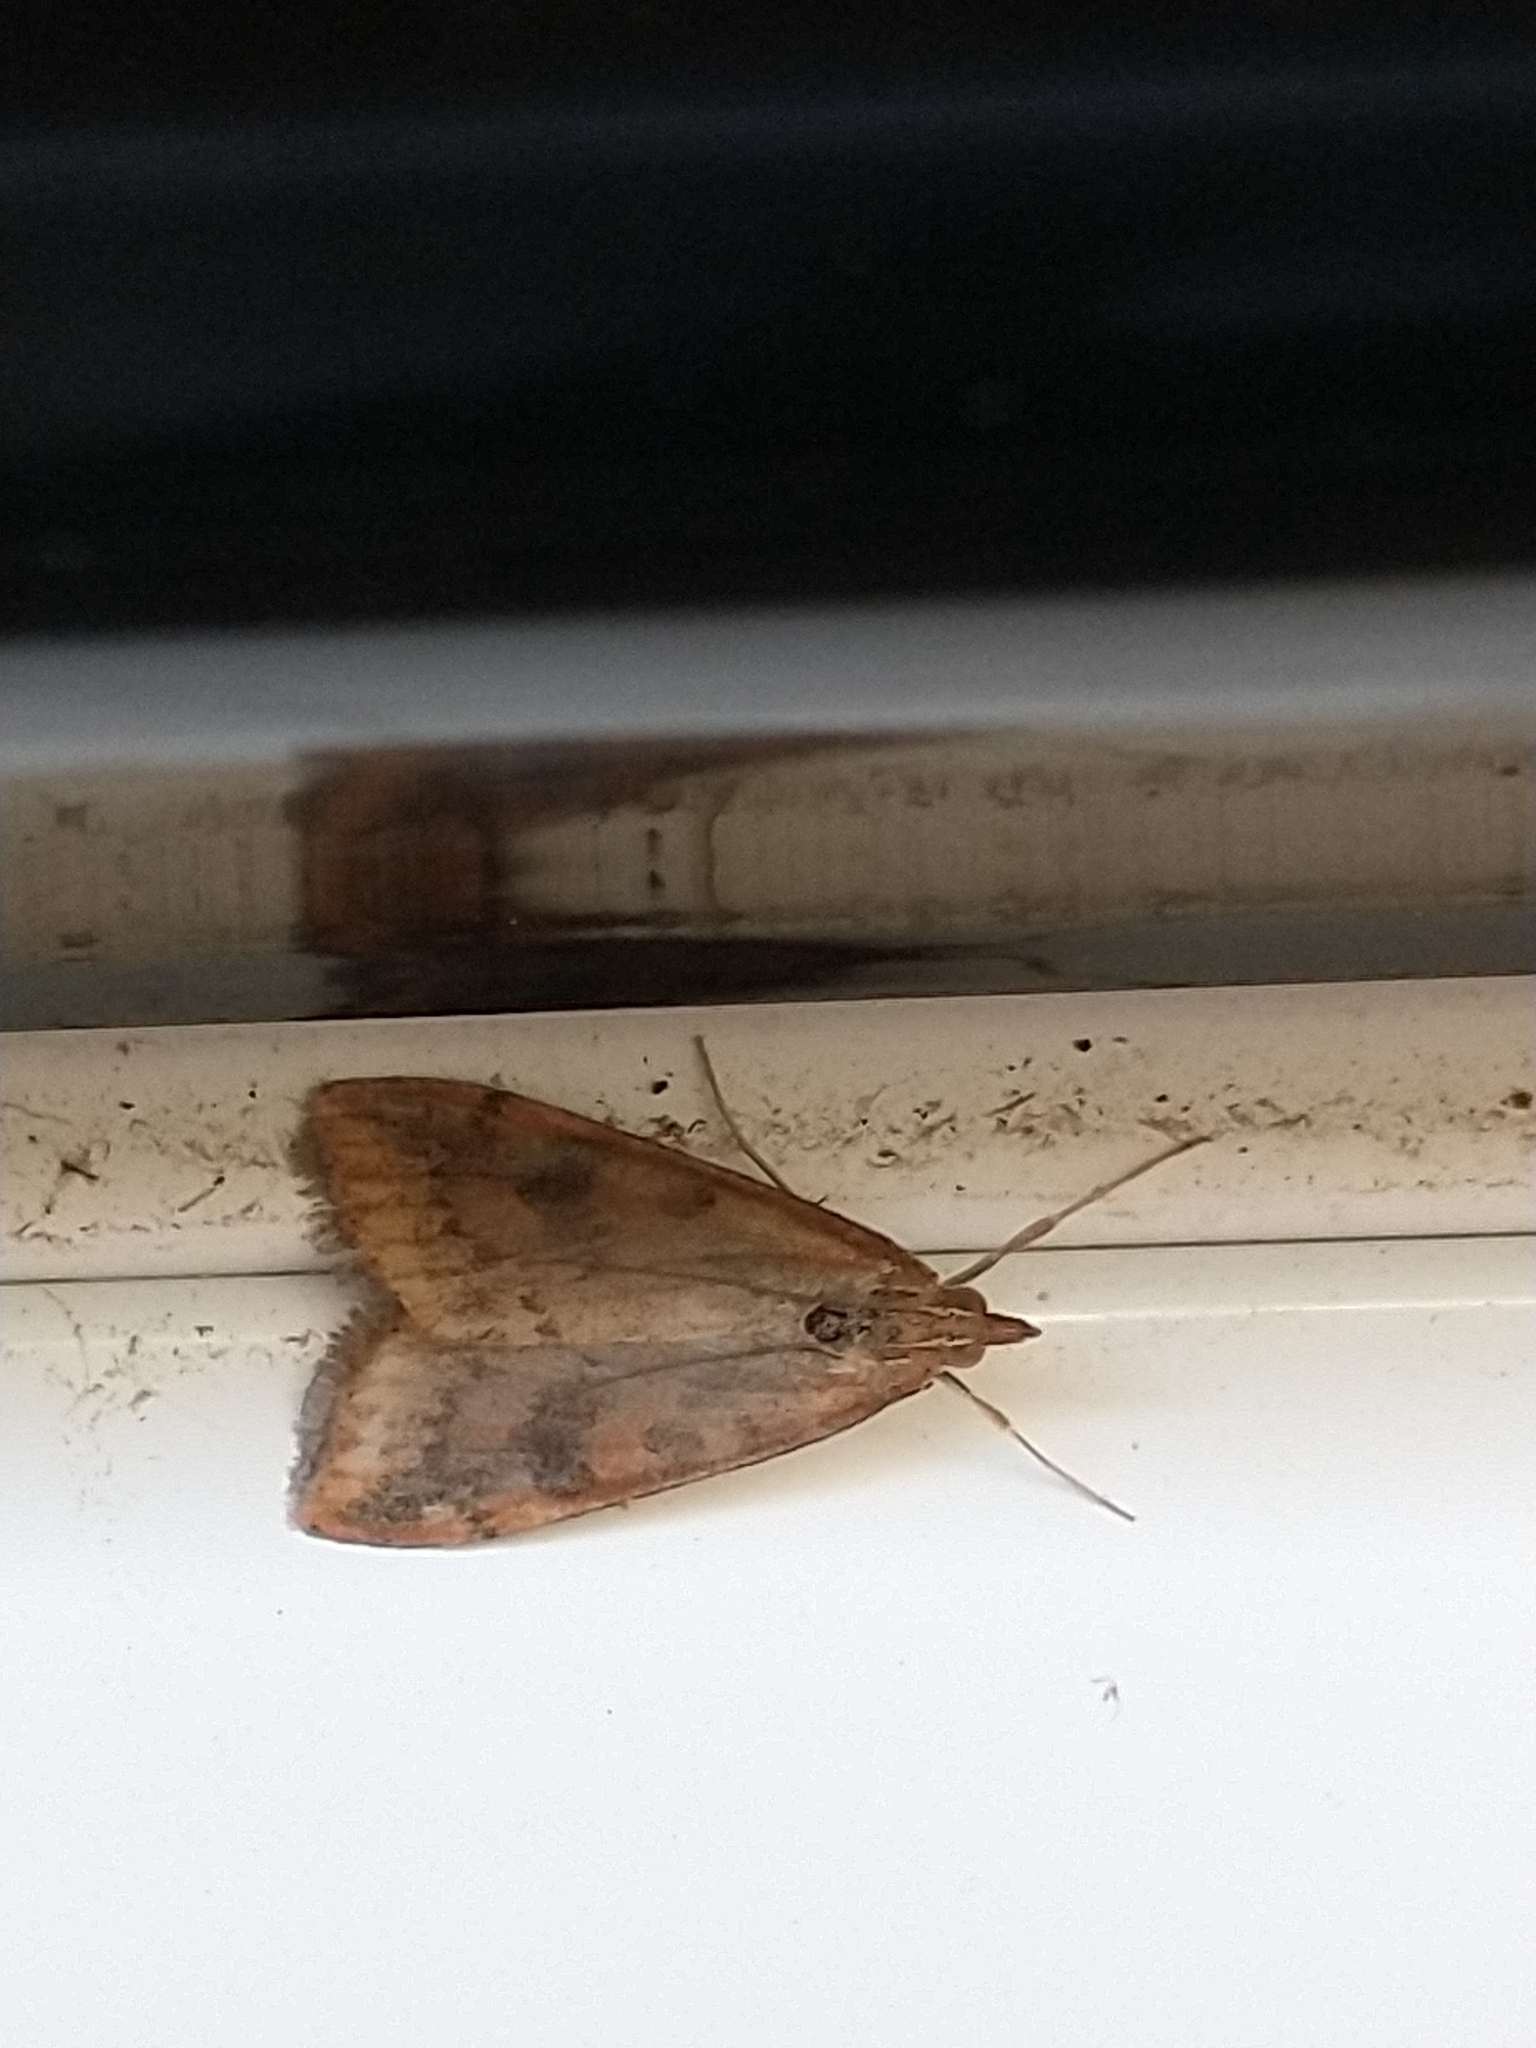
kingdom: Animalia
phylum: Arthropoda
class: Insecta
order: Lepidoptera
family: Crambidae
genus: Udea
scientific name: Udea ferrugalis
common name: Rusty dot
